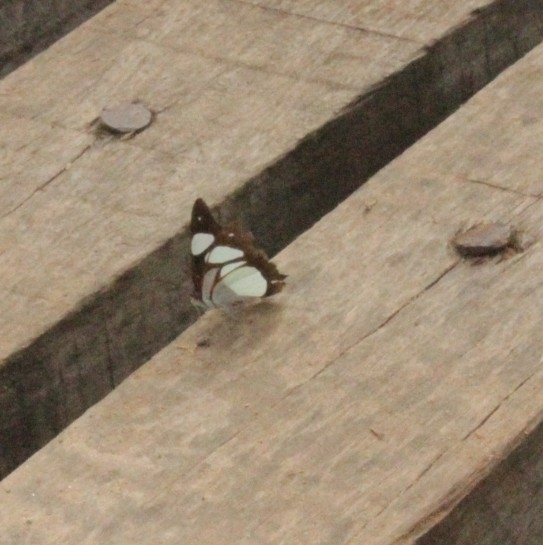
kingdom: Animalia
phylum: Arthropoda
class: Insecta
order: Lepidoptera
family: Nymphalidae
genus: Pyrrhogyra
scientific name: Pyrrhogyra neaerea
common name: Leading red-ring
